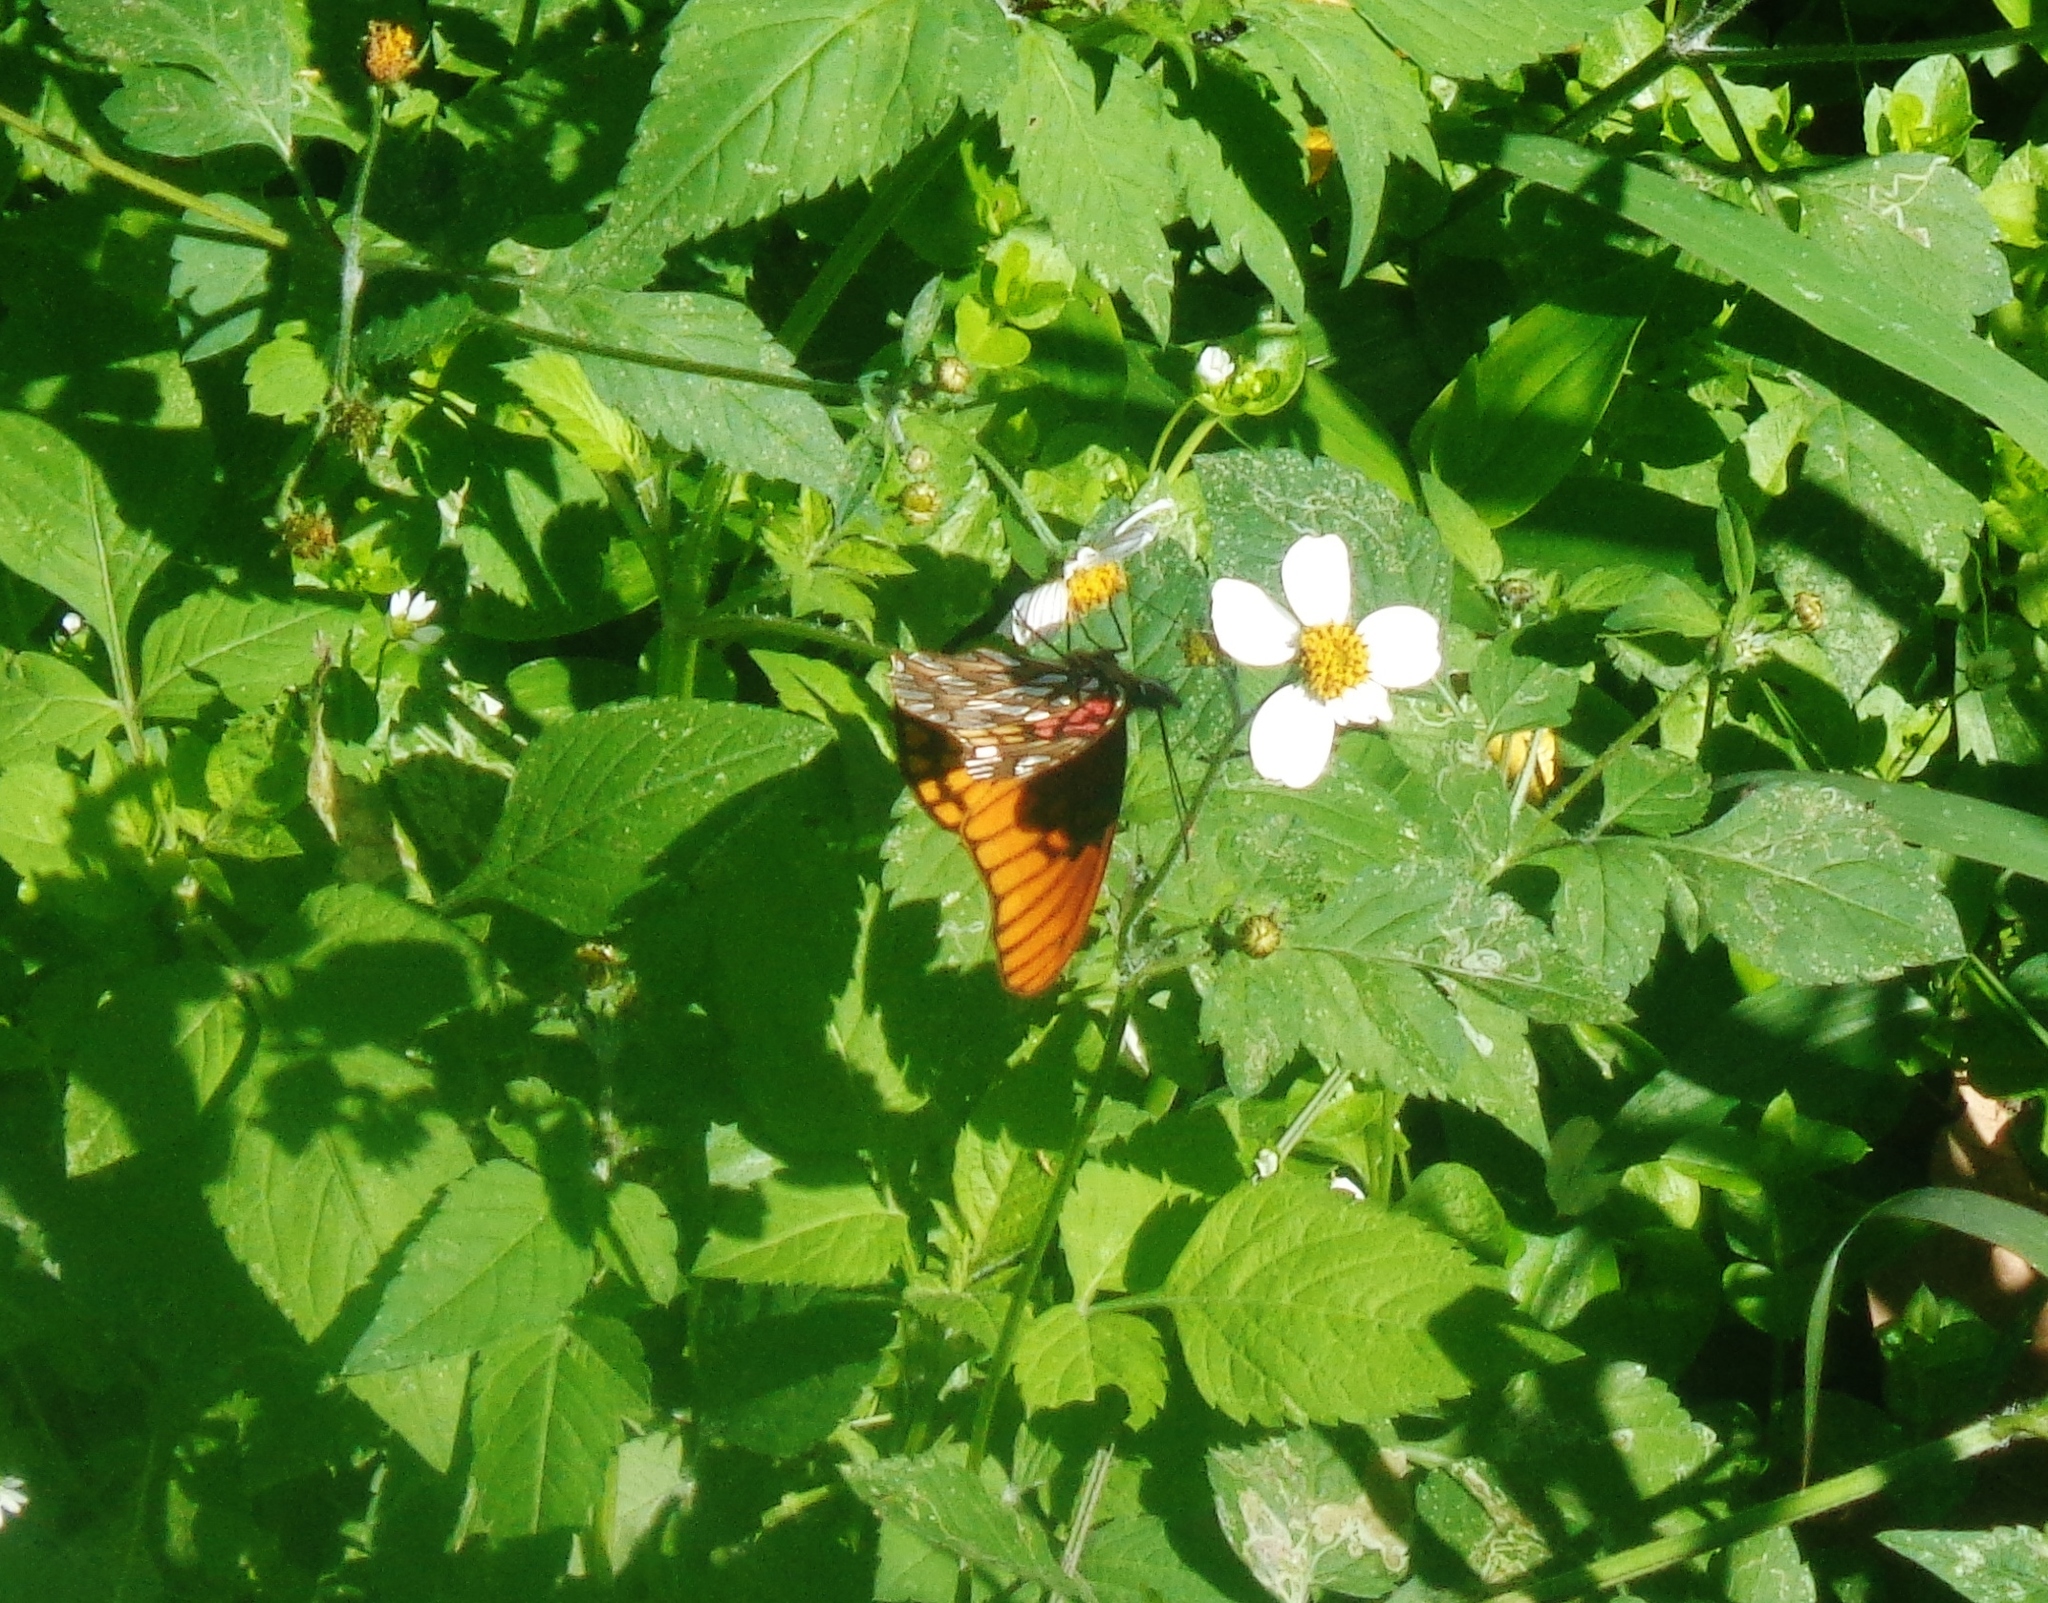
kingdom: Animalia
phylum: Arthropoda
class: Insecta
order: Lepidoptera
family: Nymphalidae
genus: Dione
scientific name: Dione moneta
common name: Mexican silverspot
